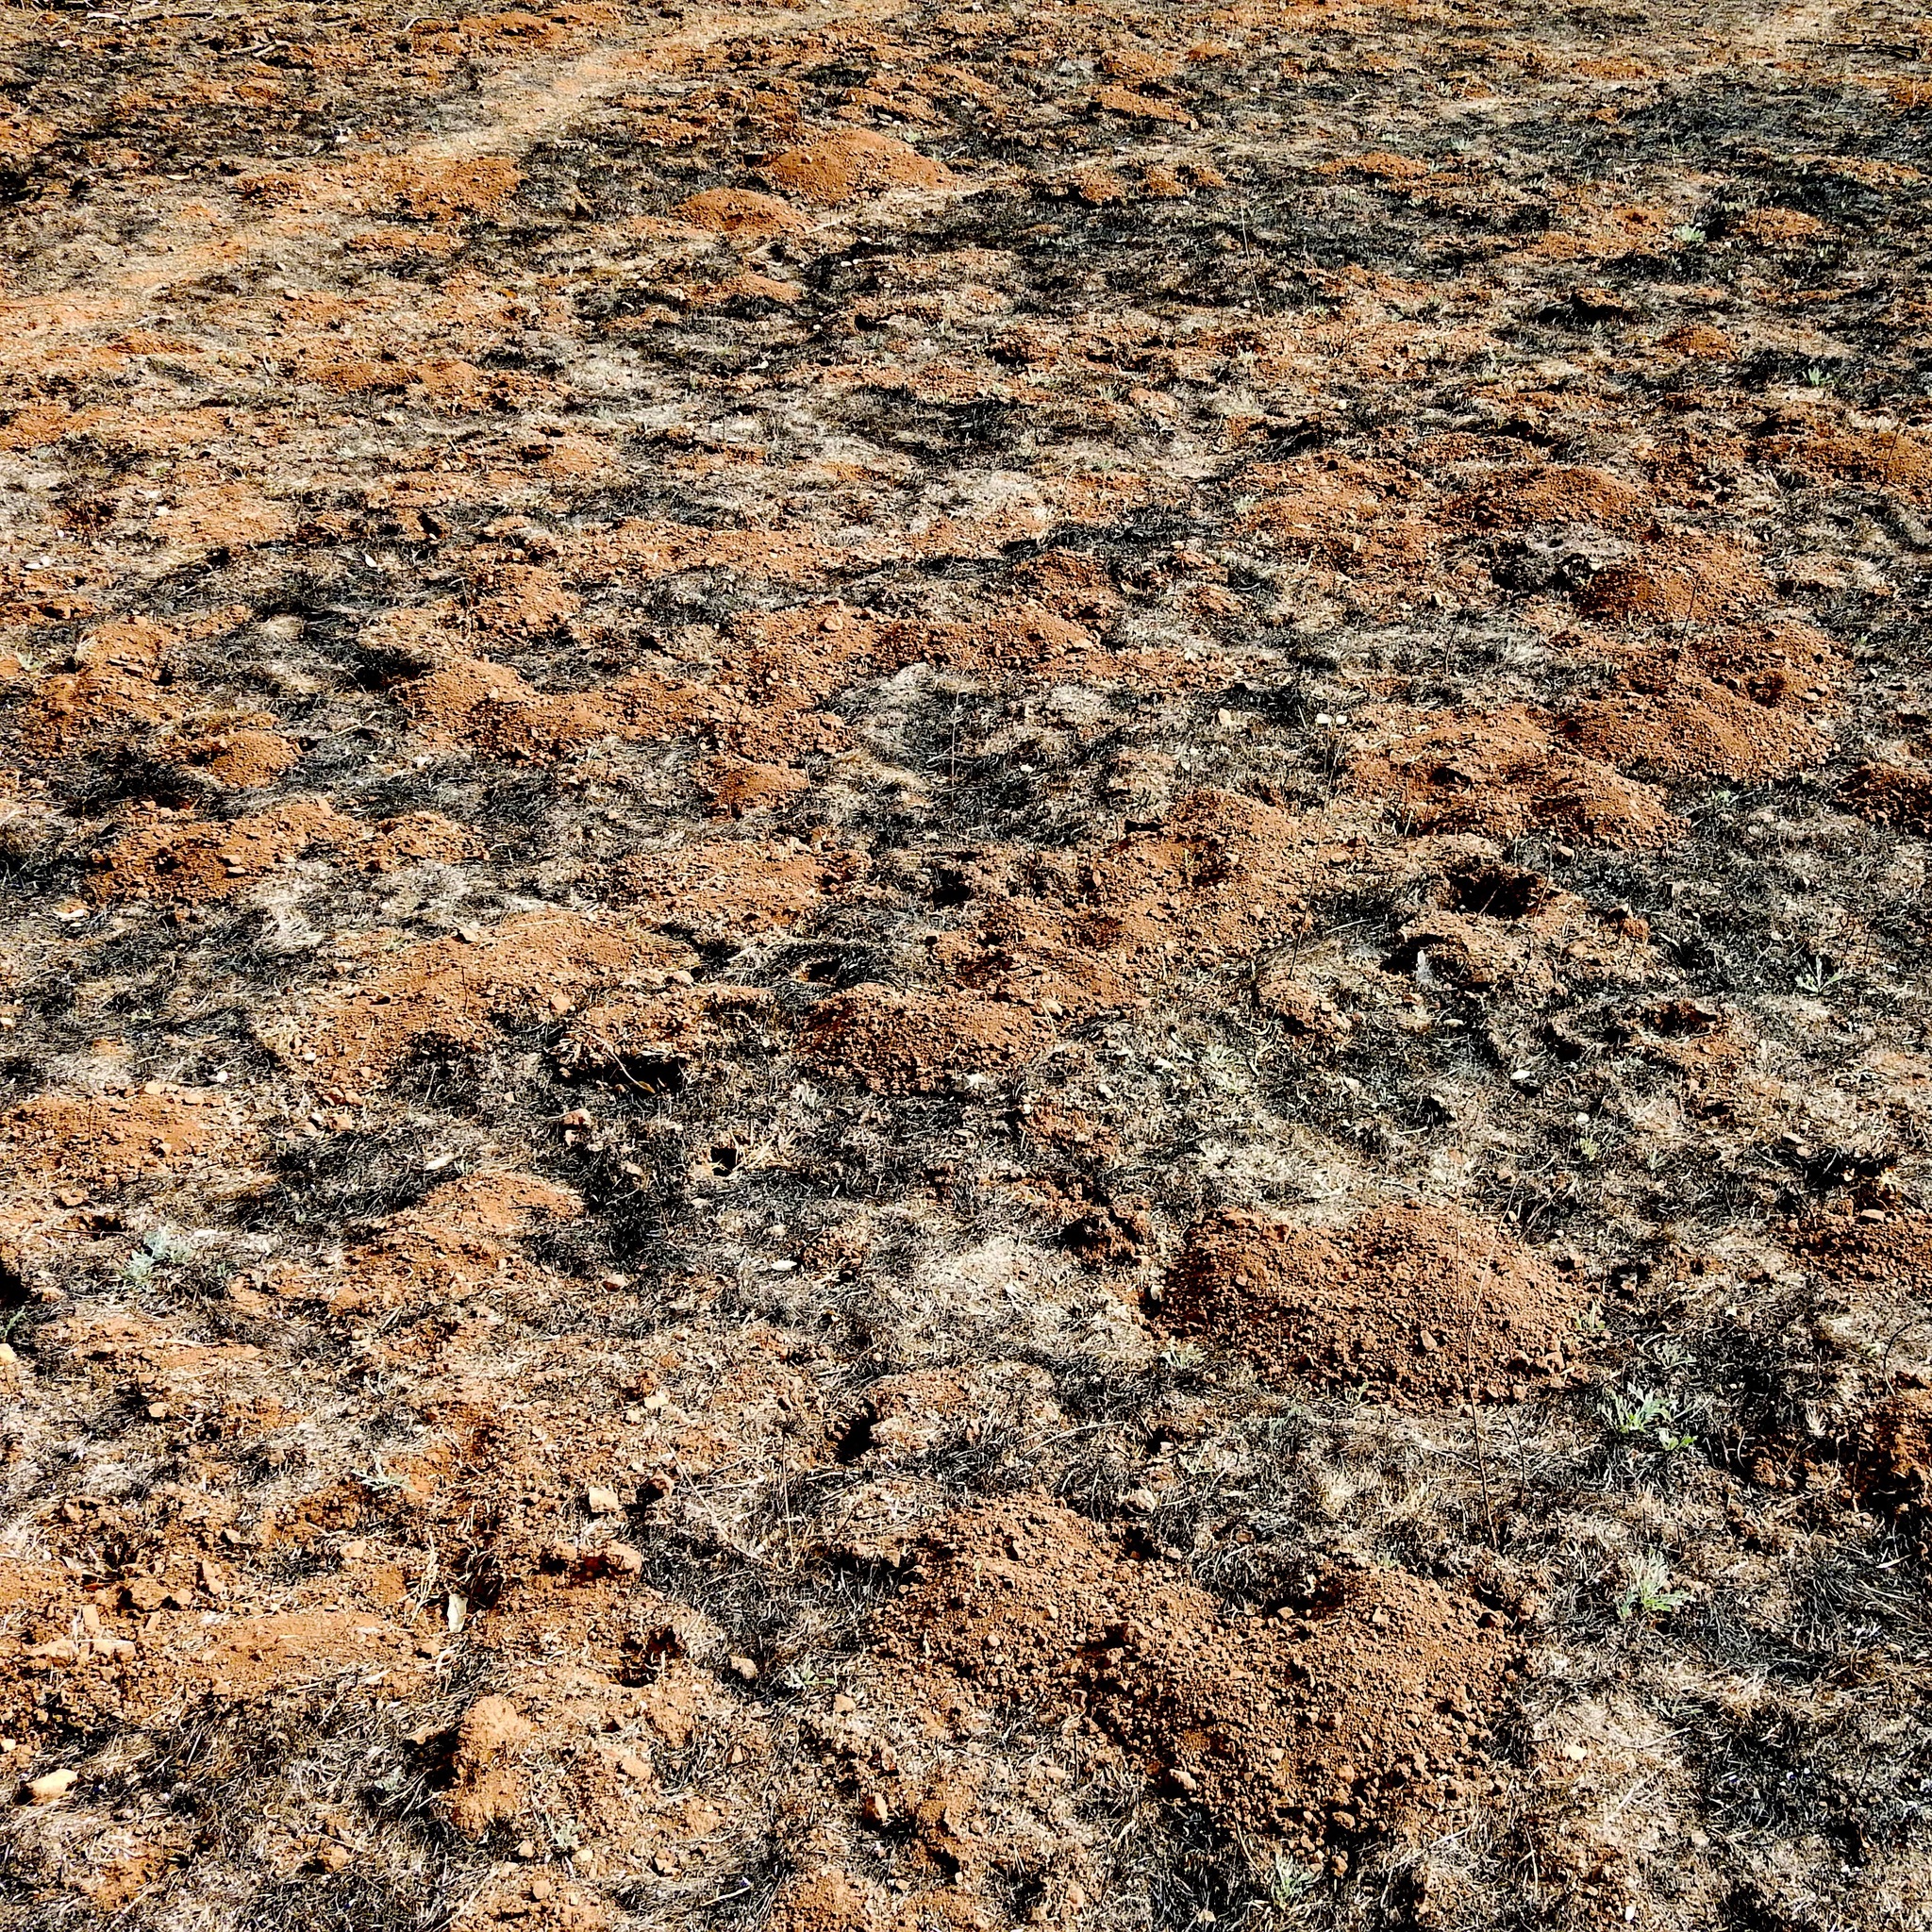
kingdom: Animalia
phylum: Chordata
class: Mammalia
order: Rodentia
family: Geomyidae
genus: Thomomys
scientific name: Thomomys bottae
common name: Botta's pocket gopher
